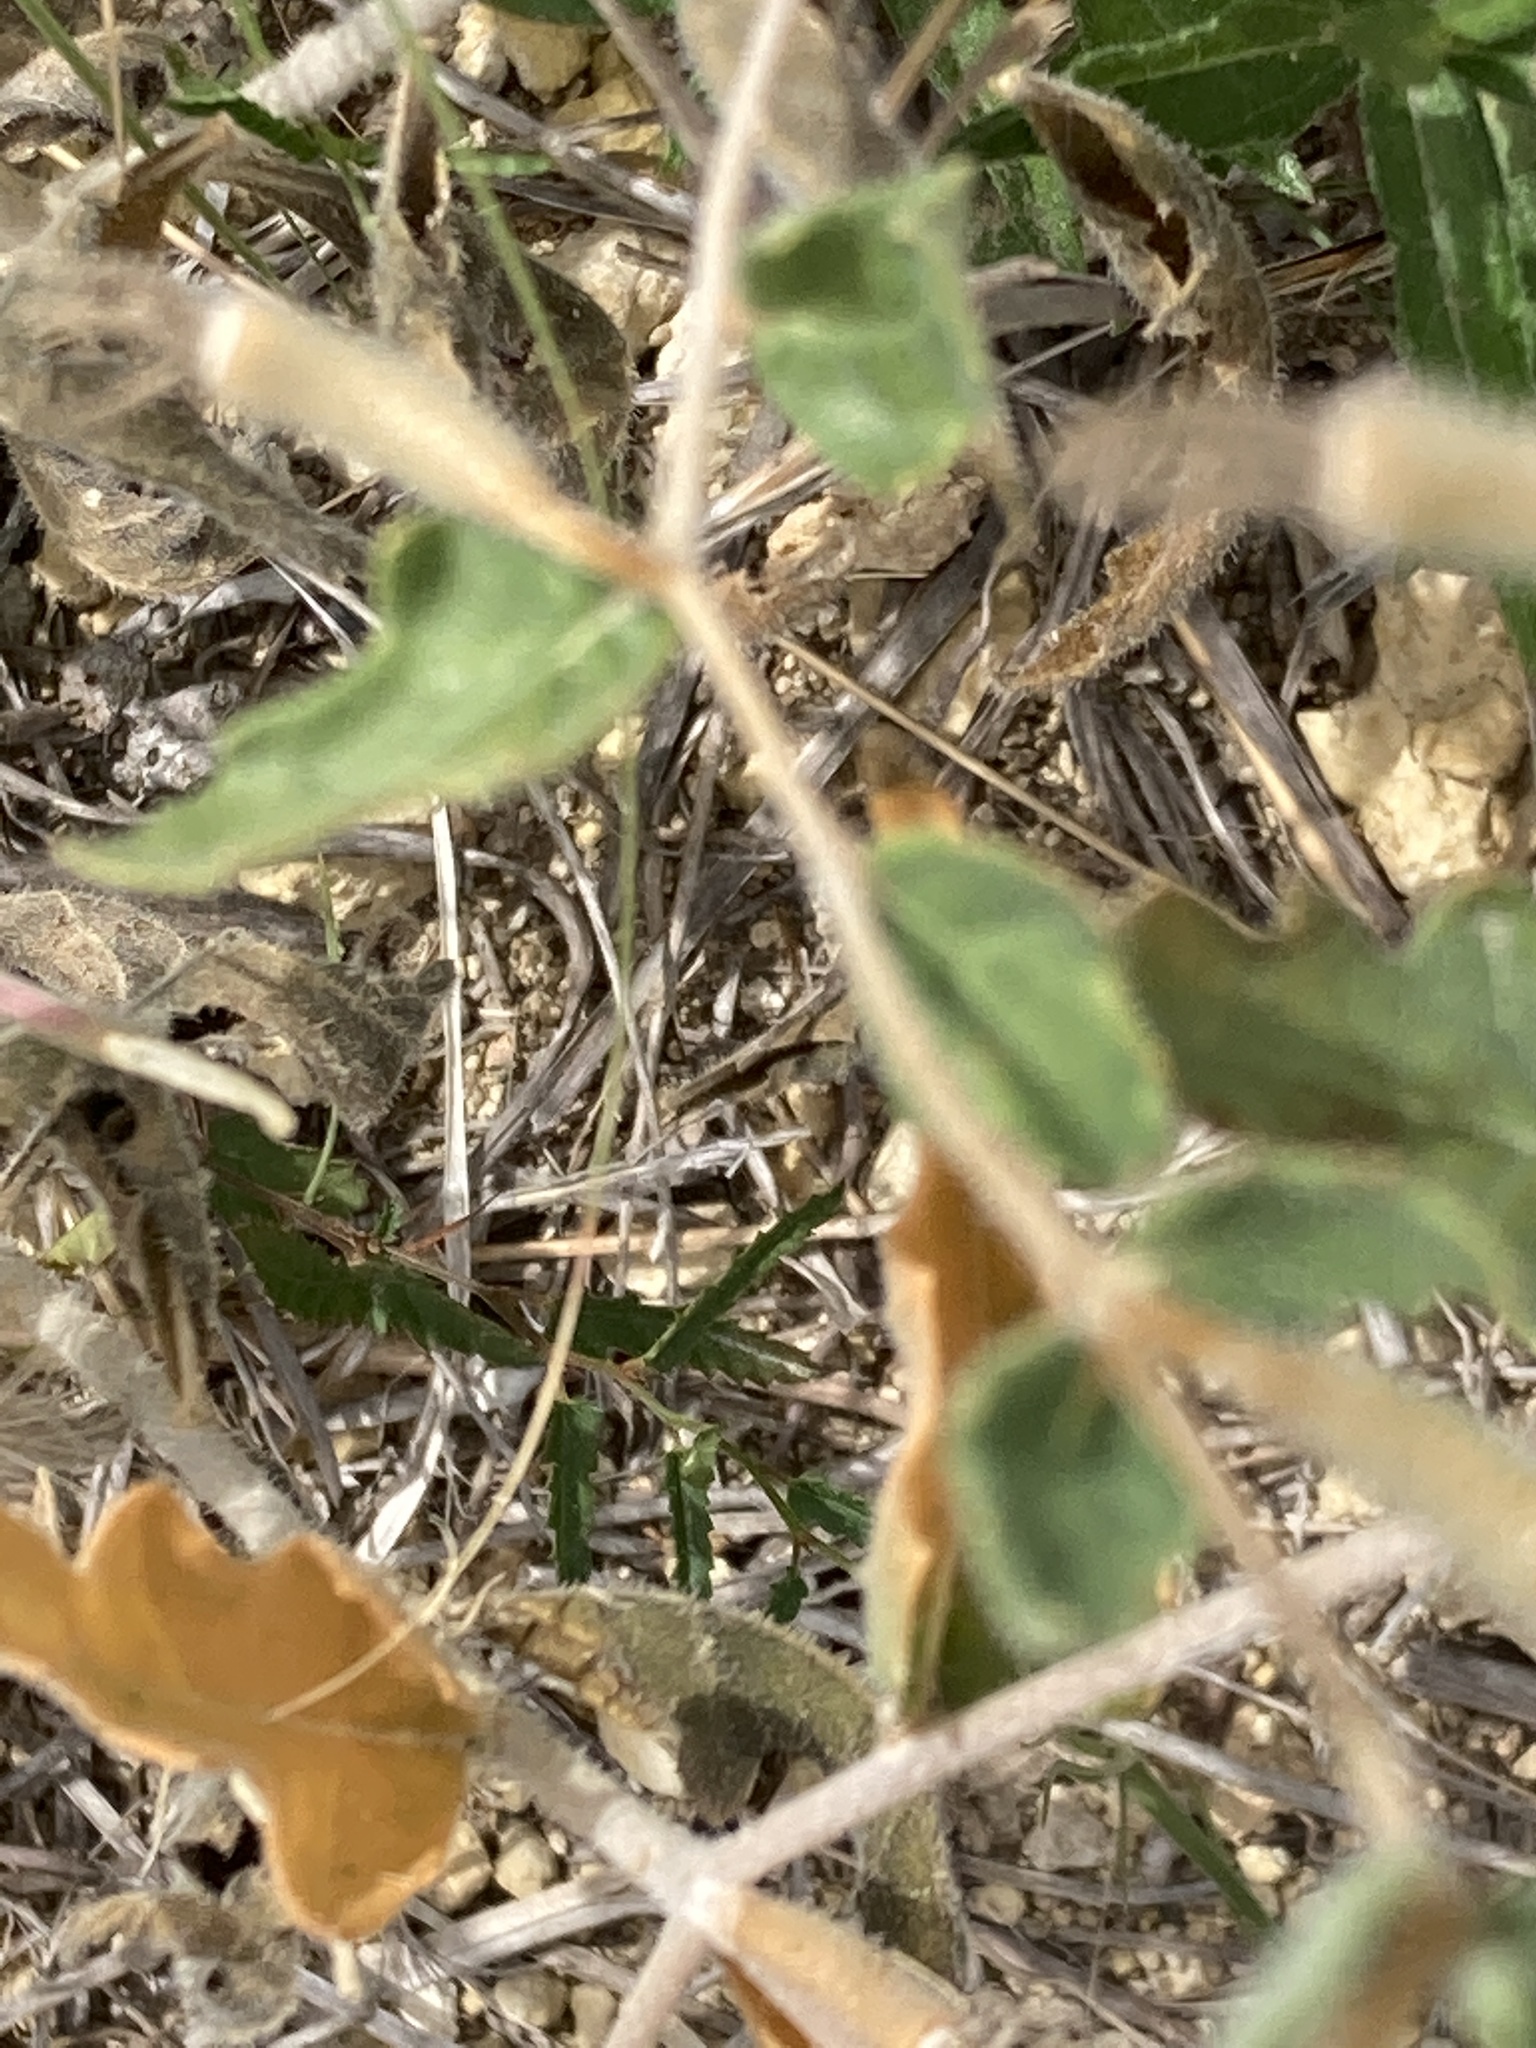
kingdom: Plantae
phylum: Tracheophyta
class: Magnoliopsida
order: Cornales
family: Loasaceae
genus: Mentzelia
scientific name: Mentzelia oligosperma
